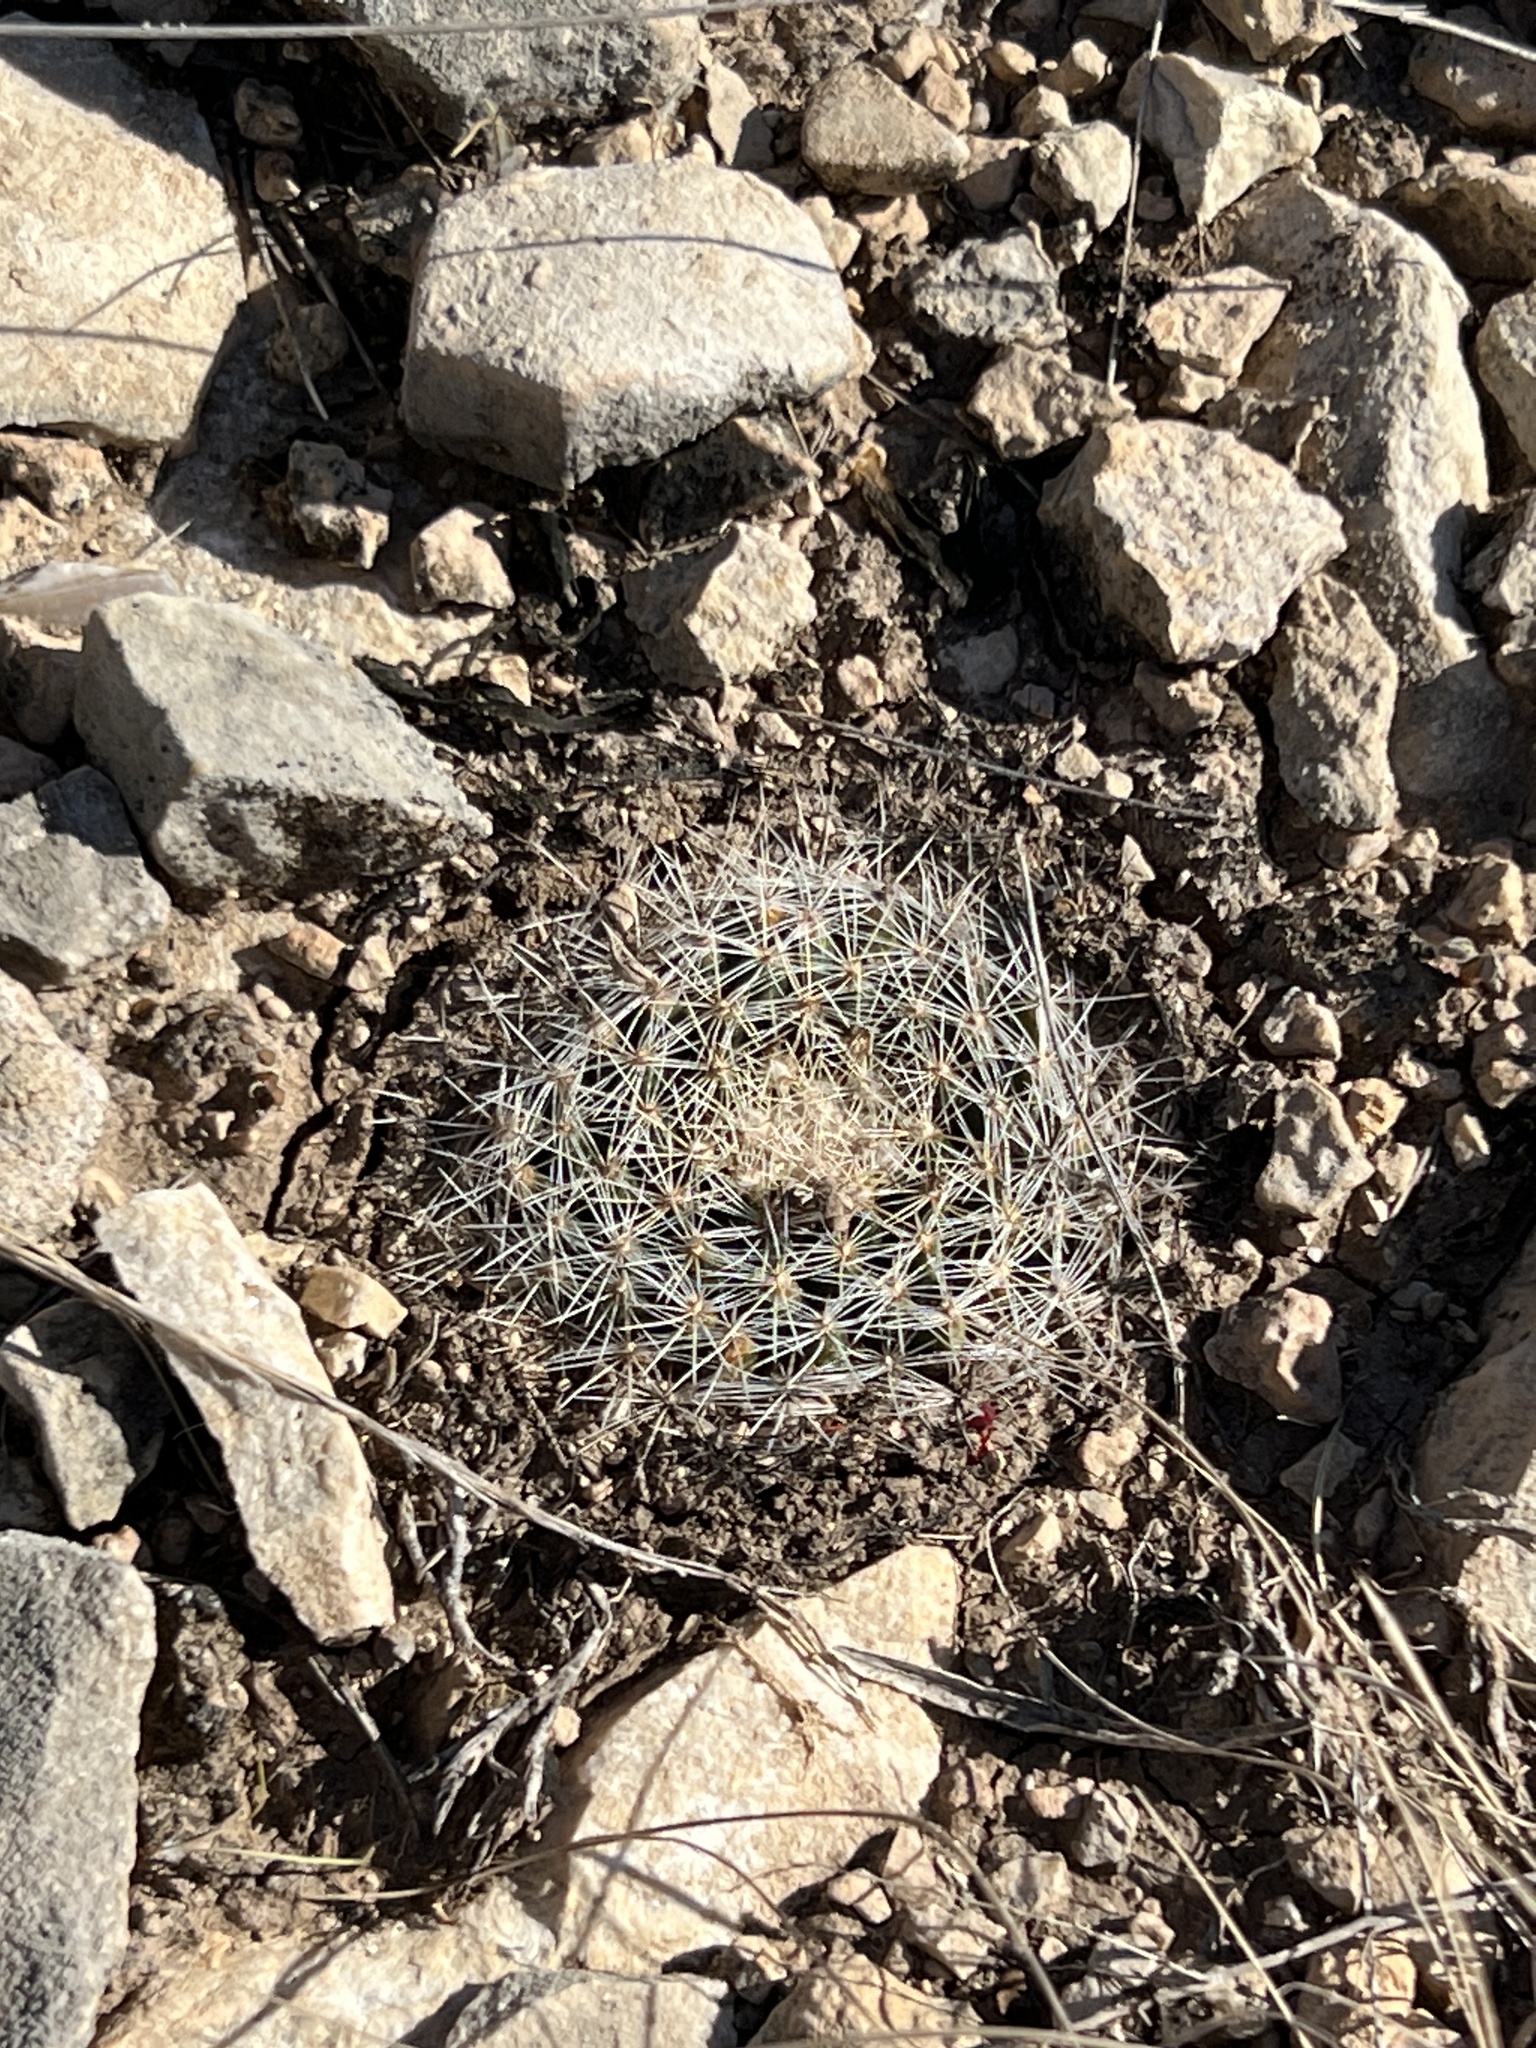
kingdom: Plantae
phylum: Tracheophyta
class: Magnoliopsida
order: Caryophyllales
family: Cactaceae
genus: Mammillaria
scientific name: Mammillaria heyderi
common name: Little nipple cactus
